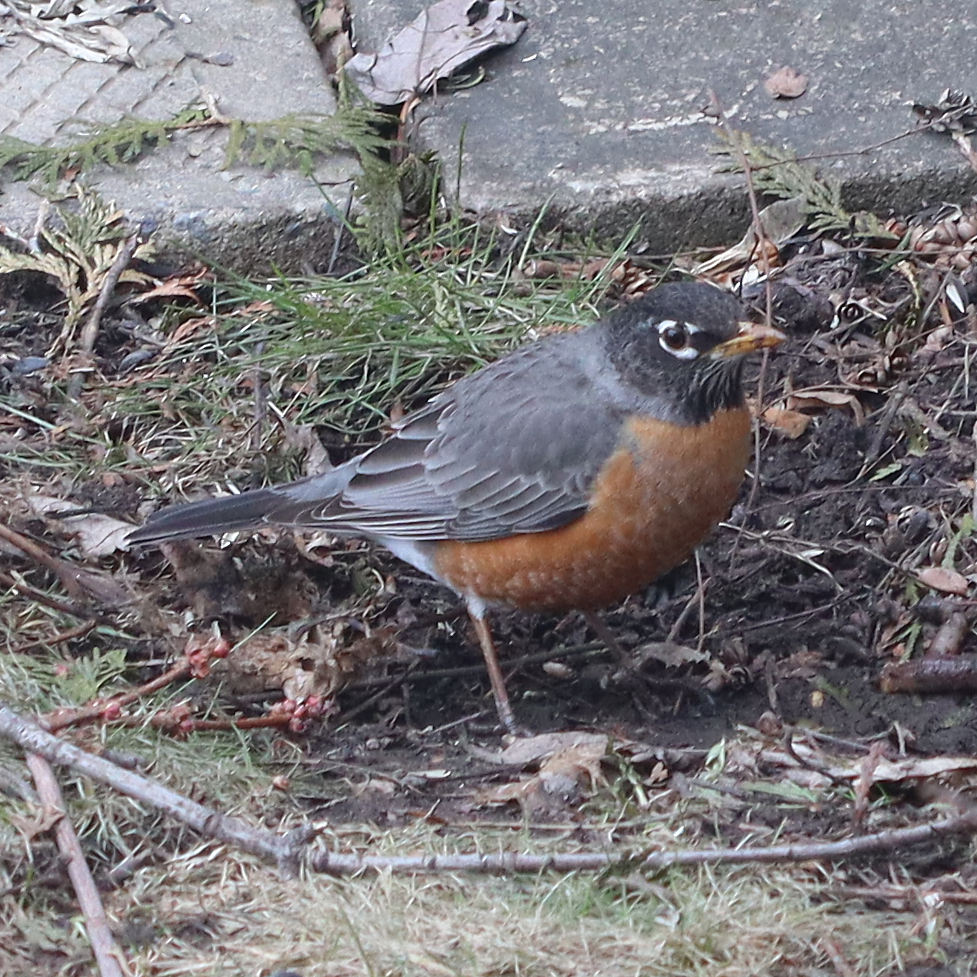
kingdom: Animalia
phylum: Chordata
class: Aves
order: Passeriformes
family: Turdidae
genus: Turdus
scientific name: Turdus migratorius
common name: American robin
